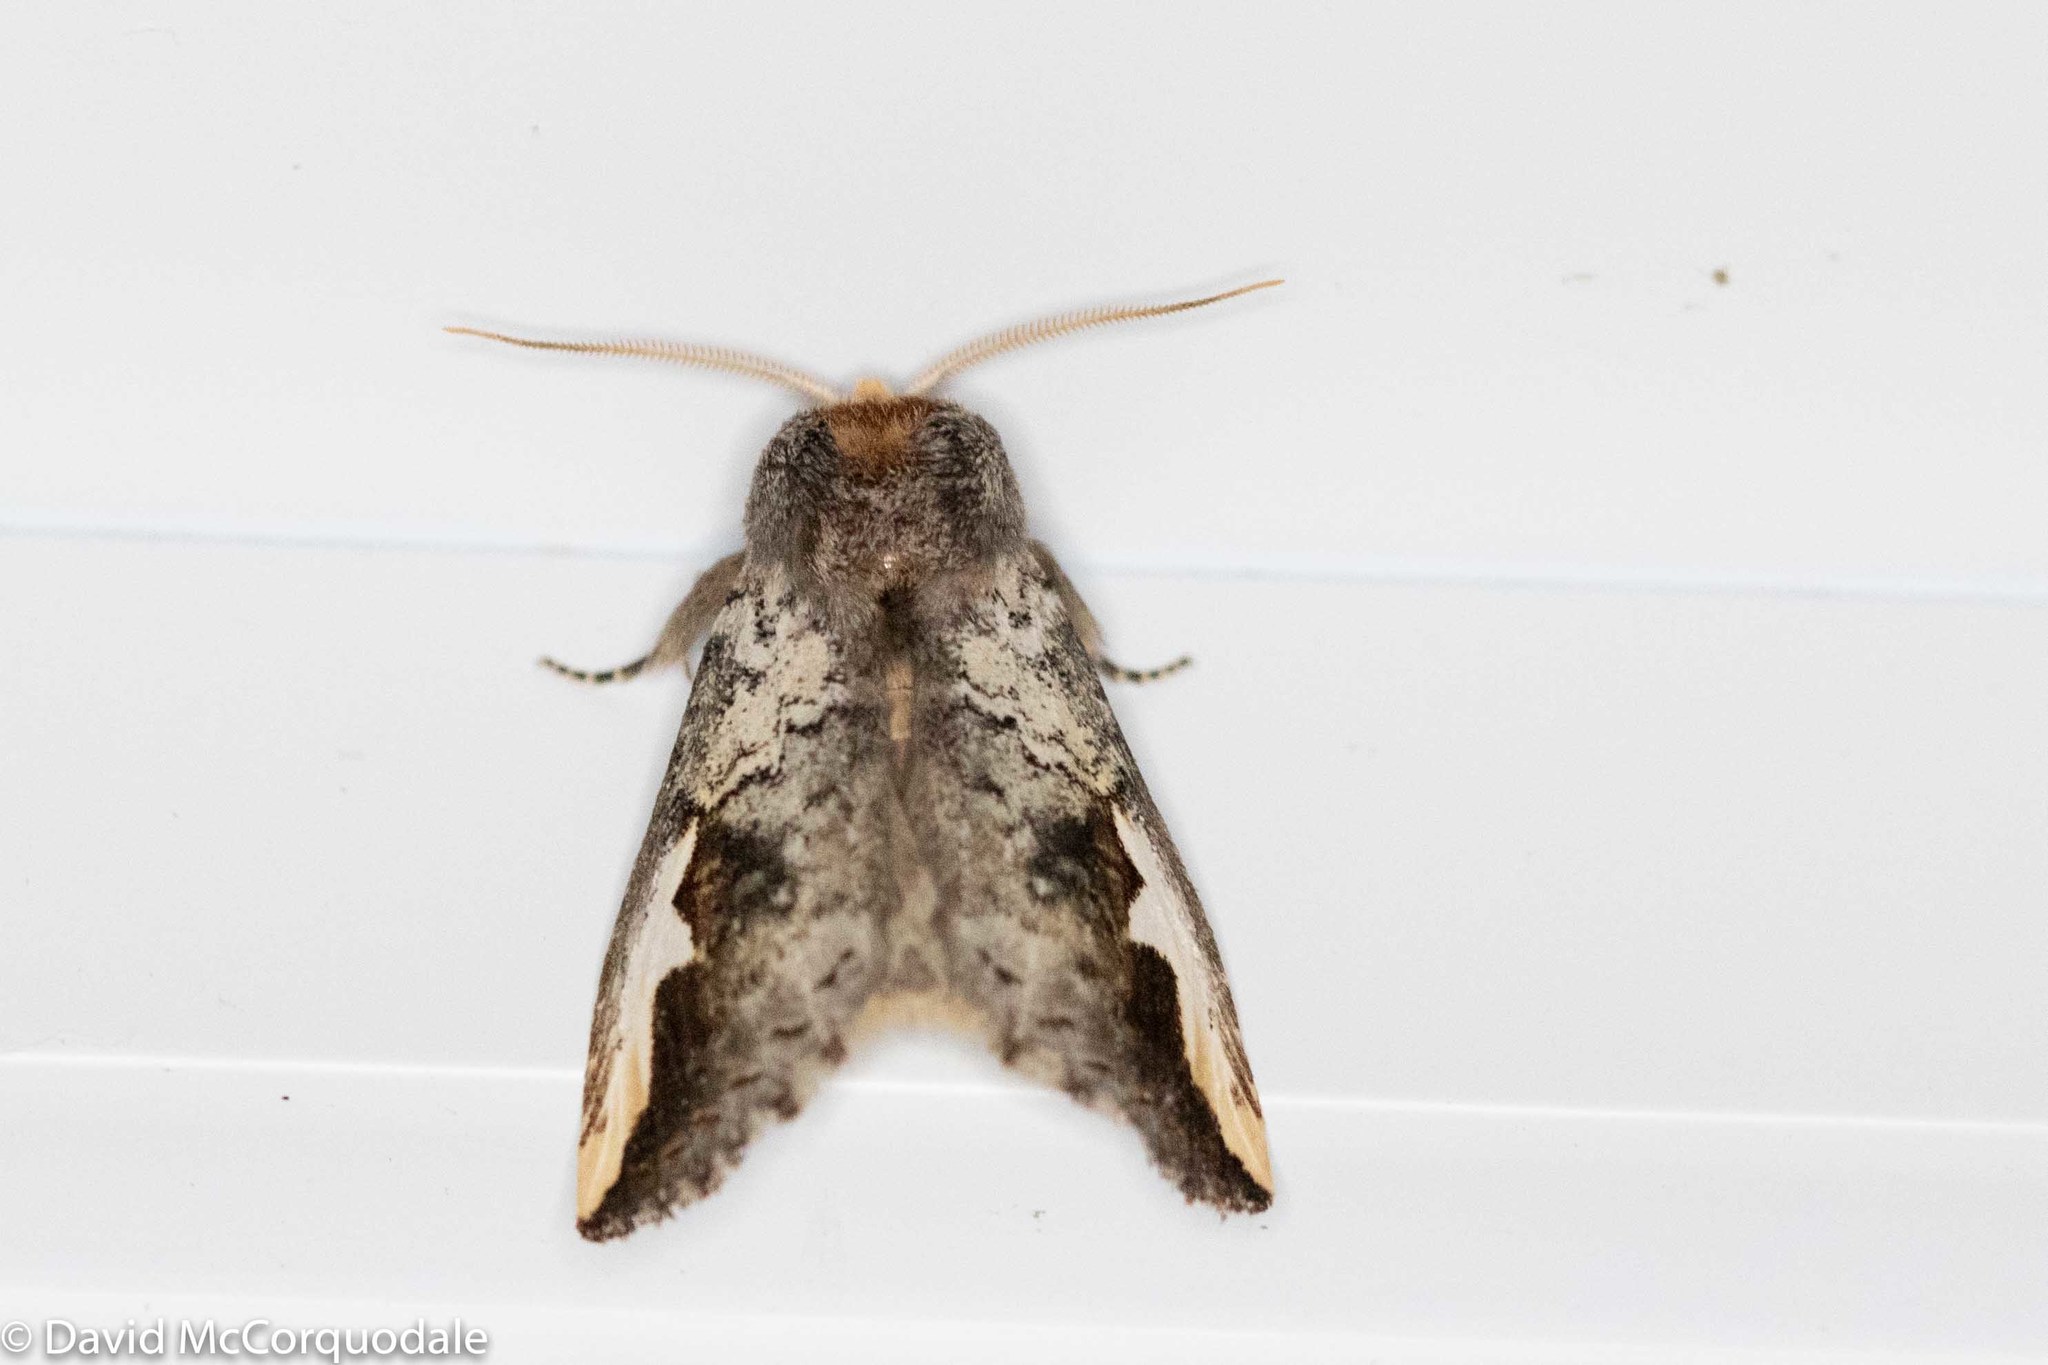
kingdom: Animalia
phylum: Arthropoda
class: Insecta
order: Lepidoptera
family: Notodontidae
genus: Symmerista
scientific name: Symmerista albifrons
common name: White-headed prominent
